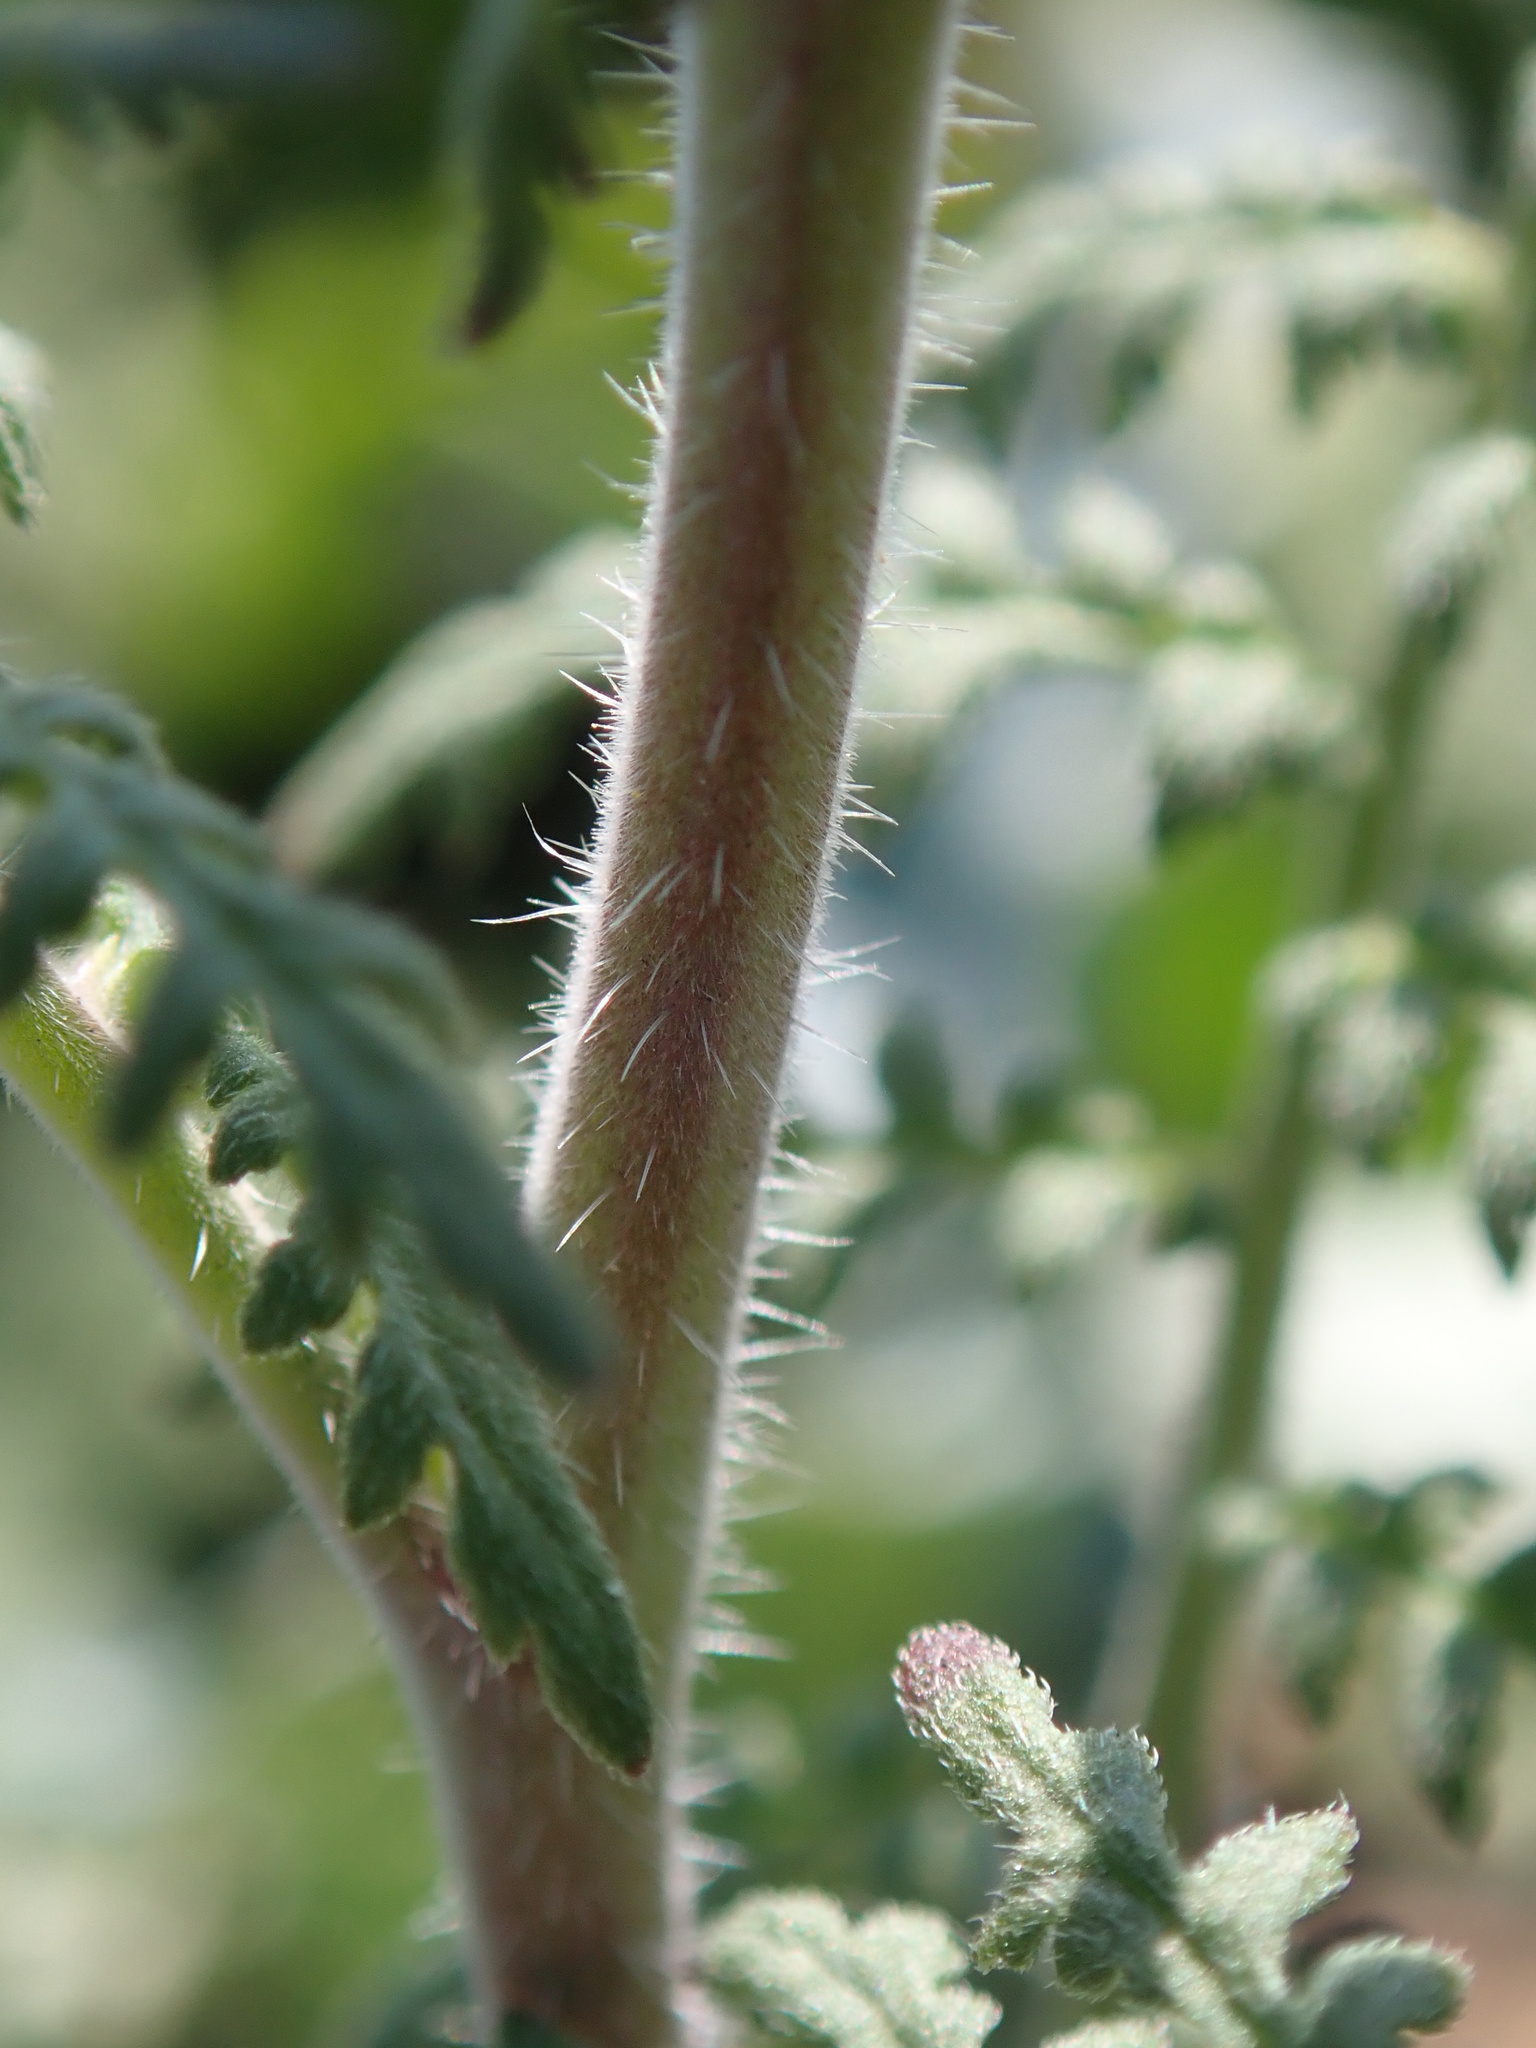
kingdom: Plantae
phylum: Tracheophyta
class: Magnoliopsida
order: Boraginales
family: Hydrophyllaceae
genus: Phacelia
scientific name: Phacelia tanacetifolia
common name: Phacelia
